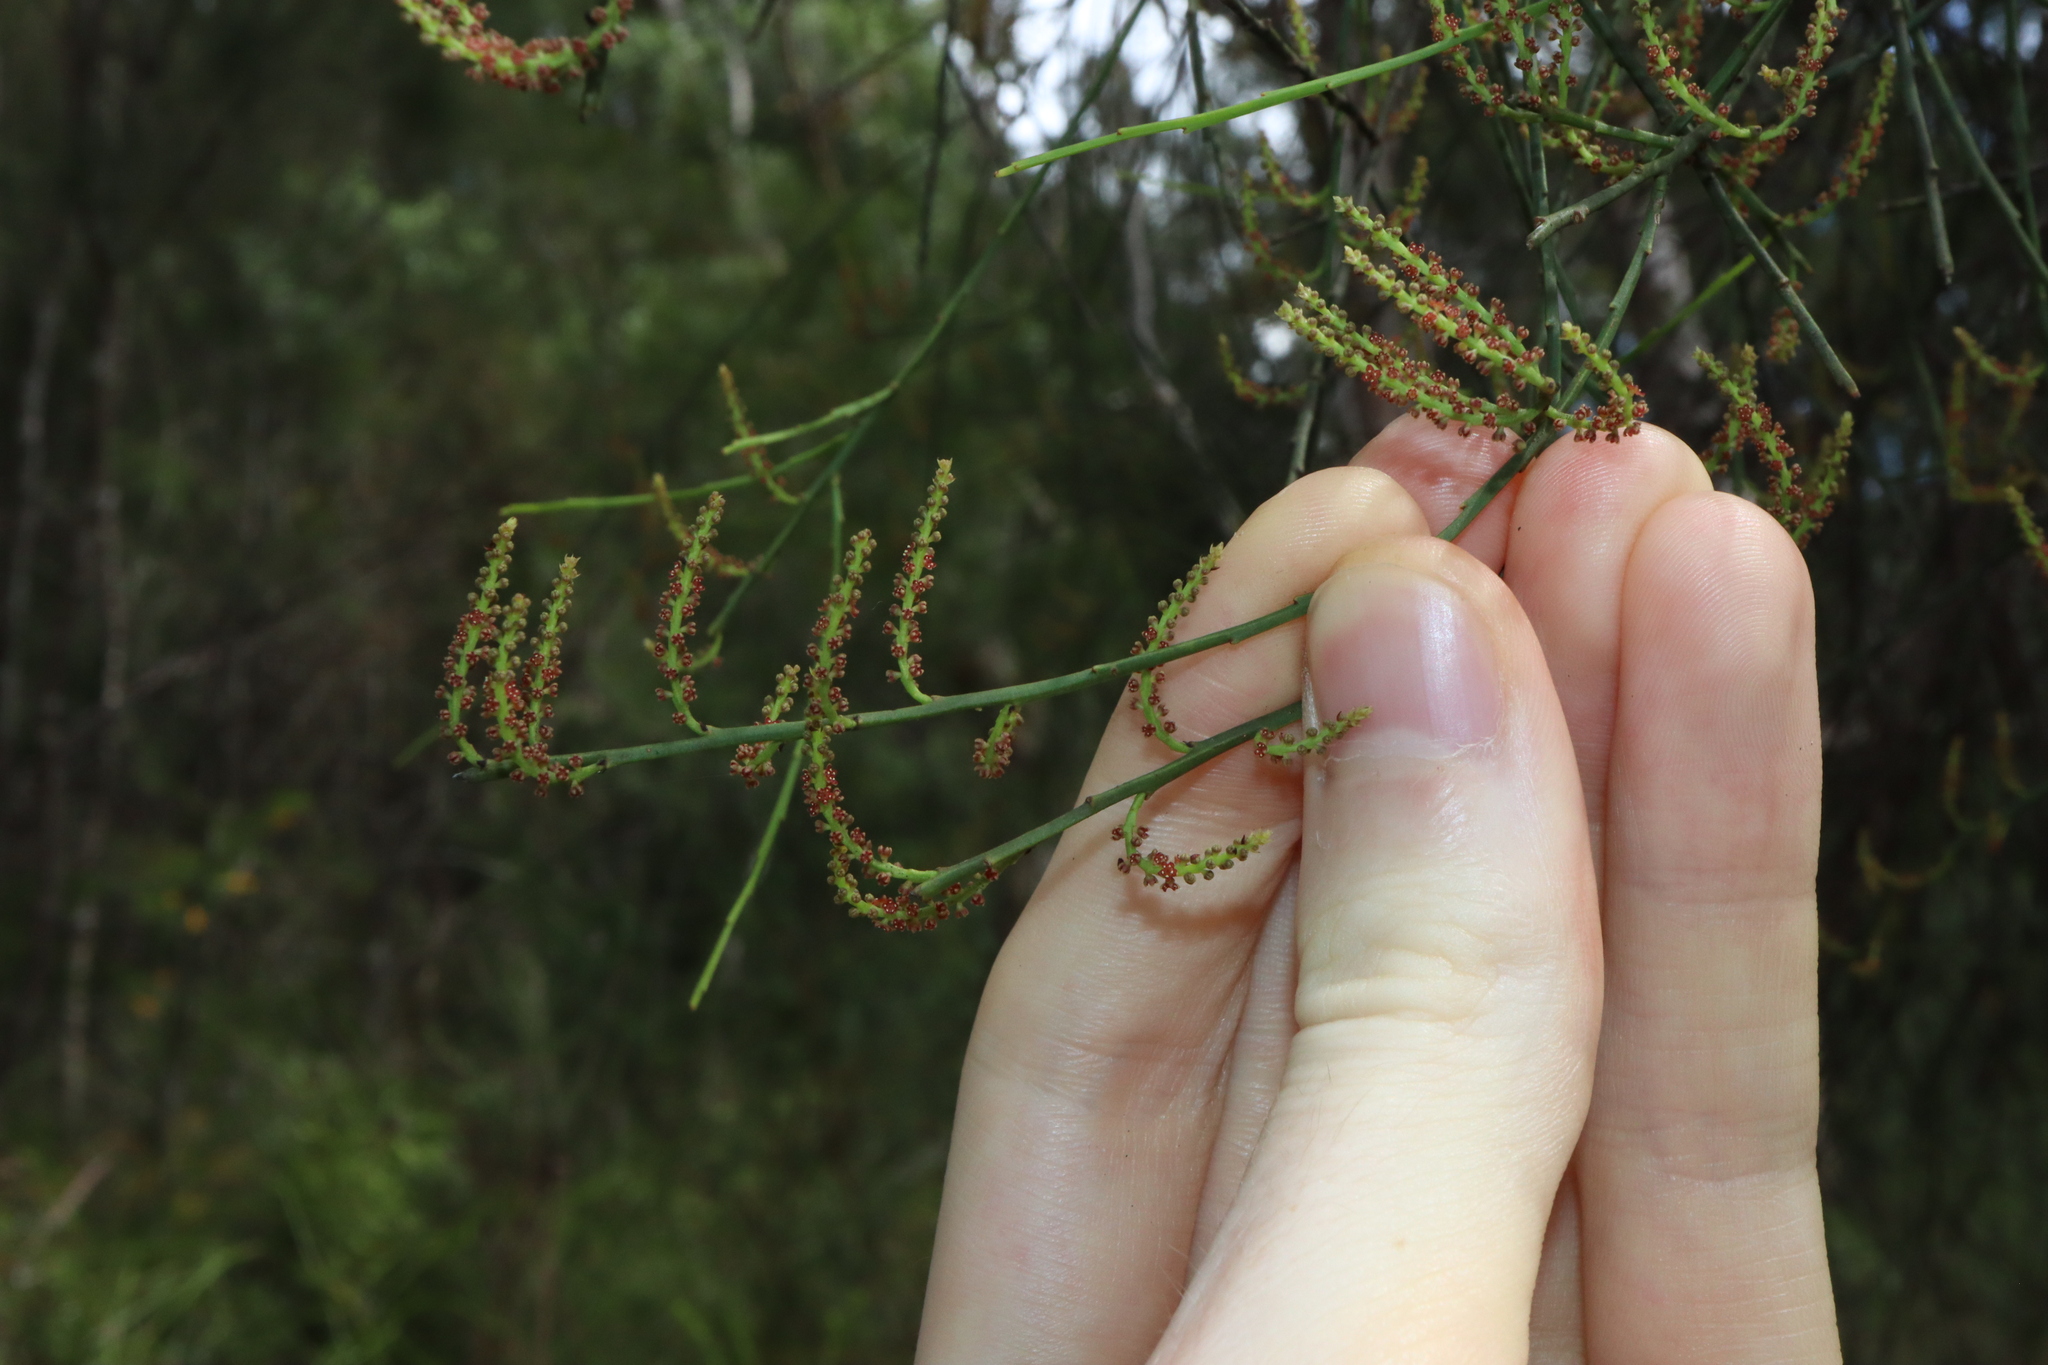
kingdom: Plantae
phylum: Tracheophyta
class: Magnoliopsida
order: Santalales
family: Amphorogynaceae
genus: Leptomeria
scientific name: Leptomeria acida
